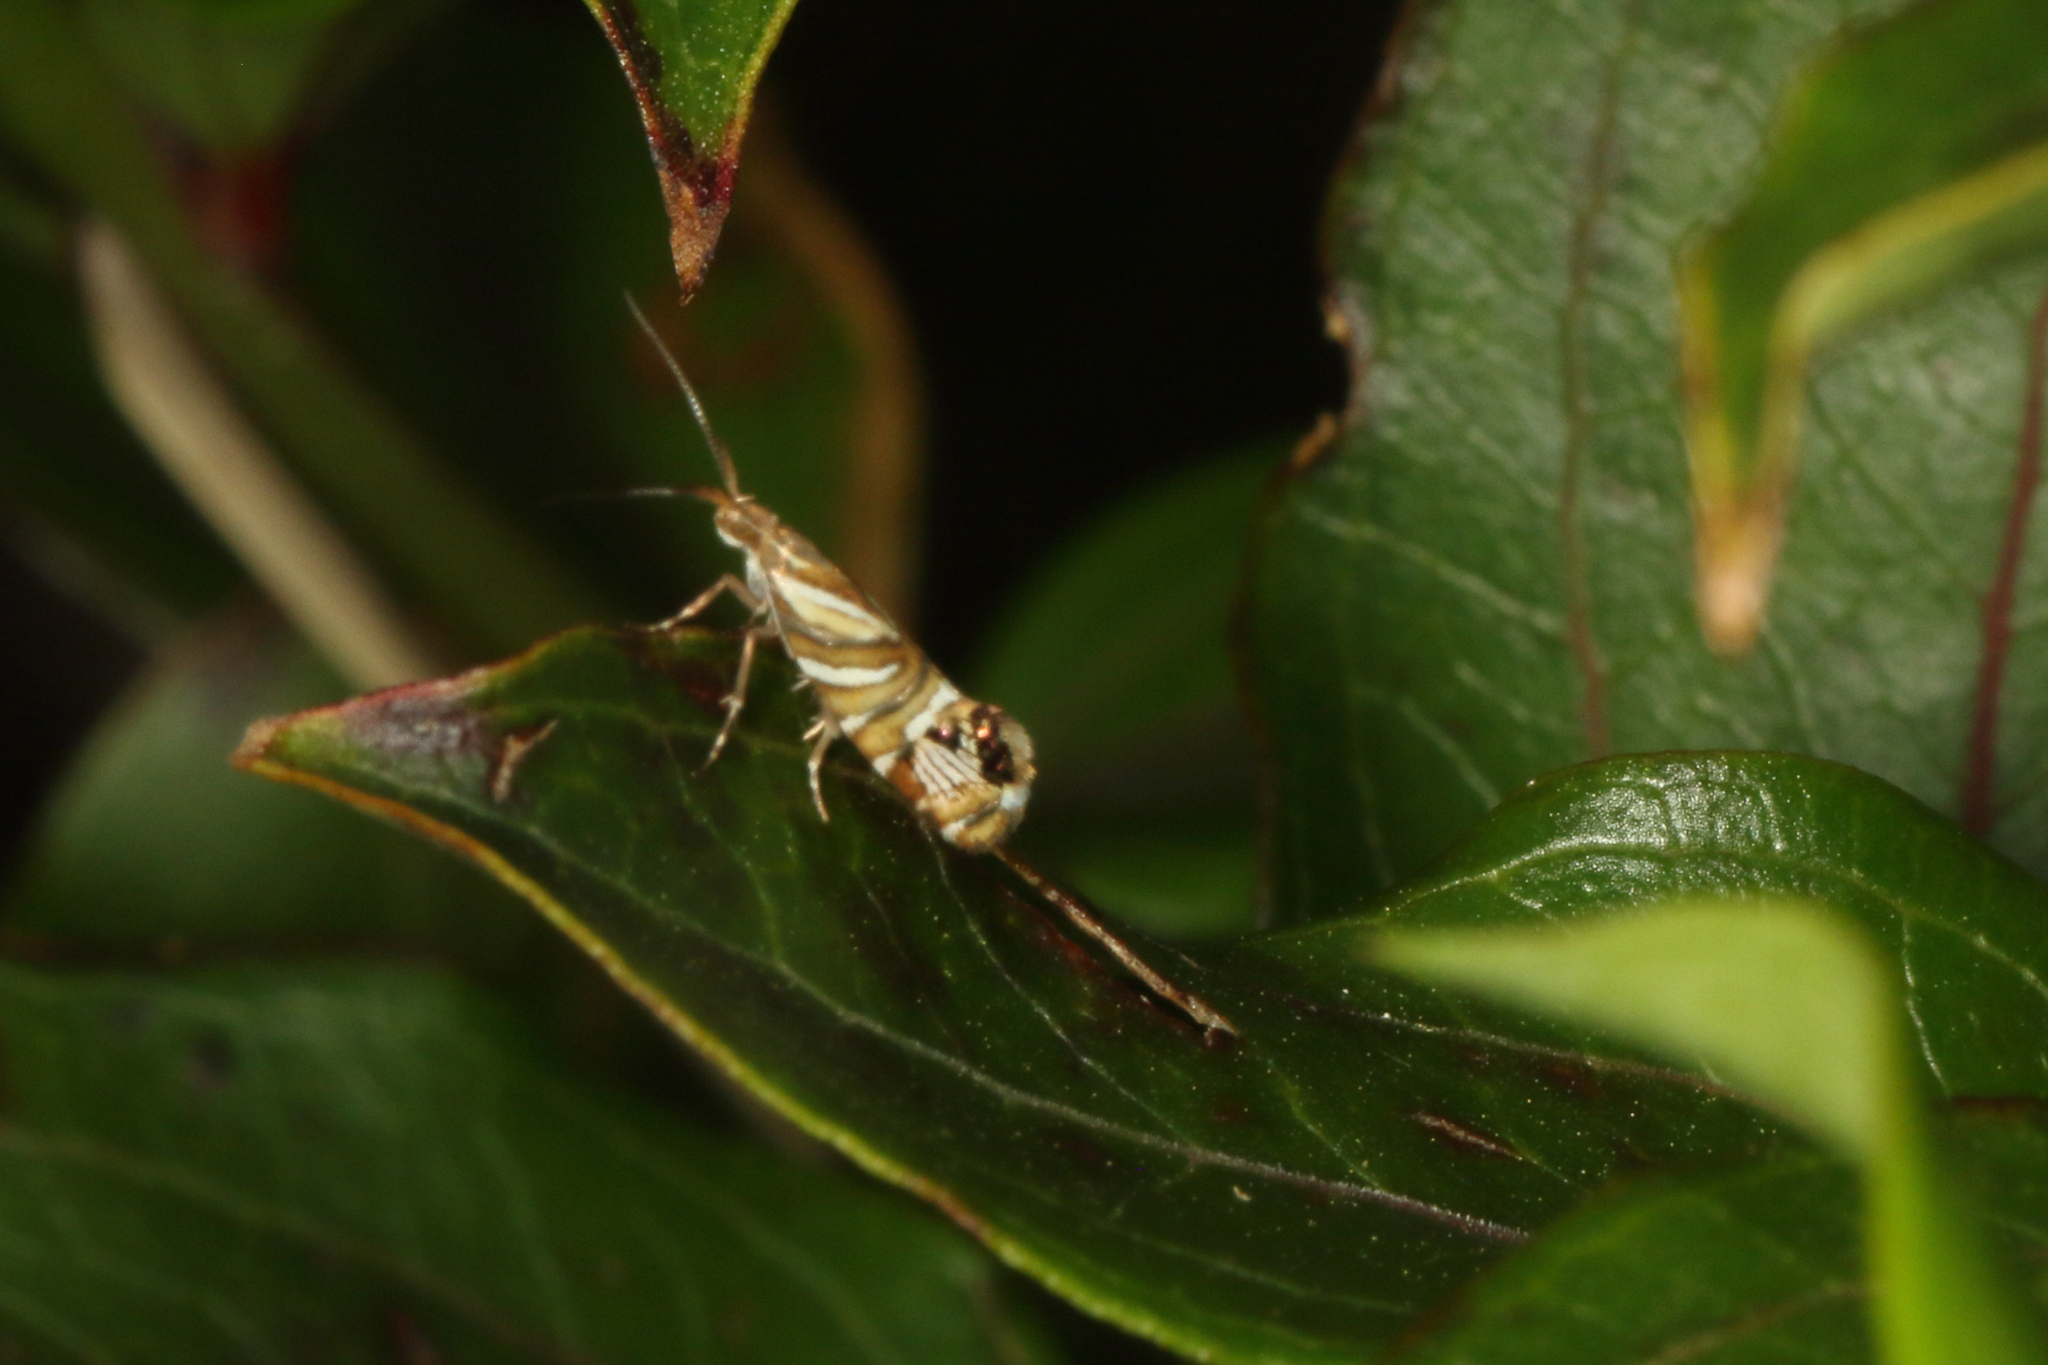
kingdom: Animalia
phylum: Arthropoda
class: Insecta
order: Lepidoptera
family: Plutellidae
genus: Protosynaema
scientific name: Protosynaema eratopis
